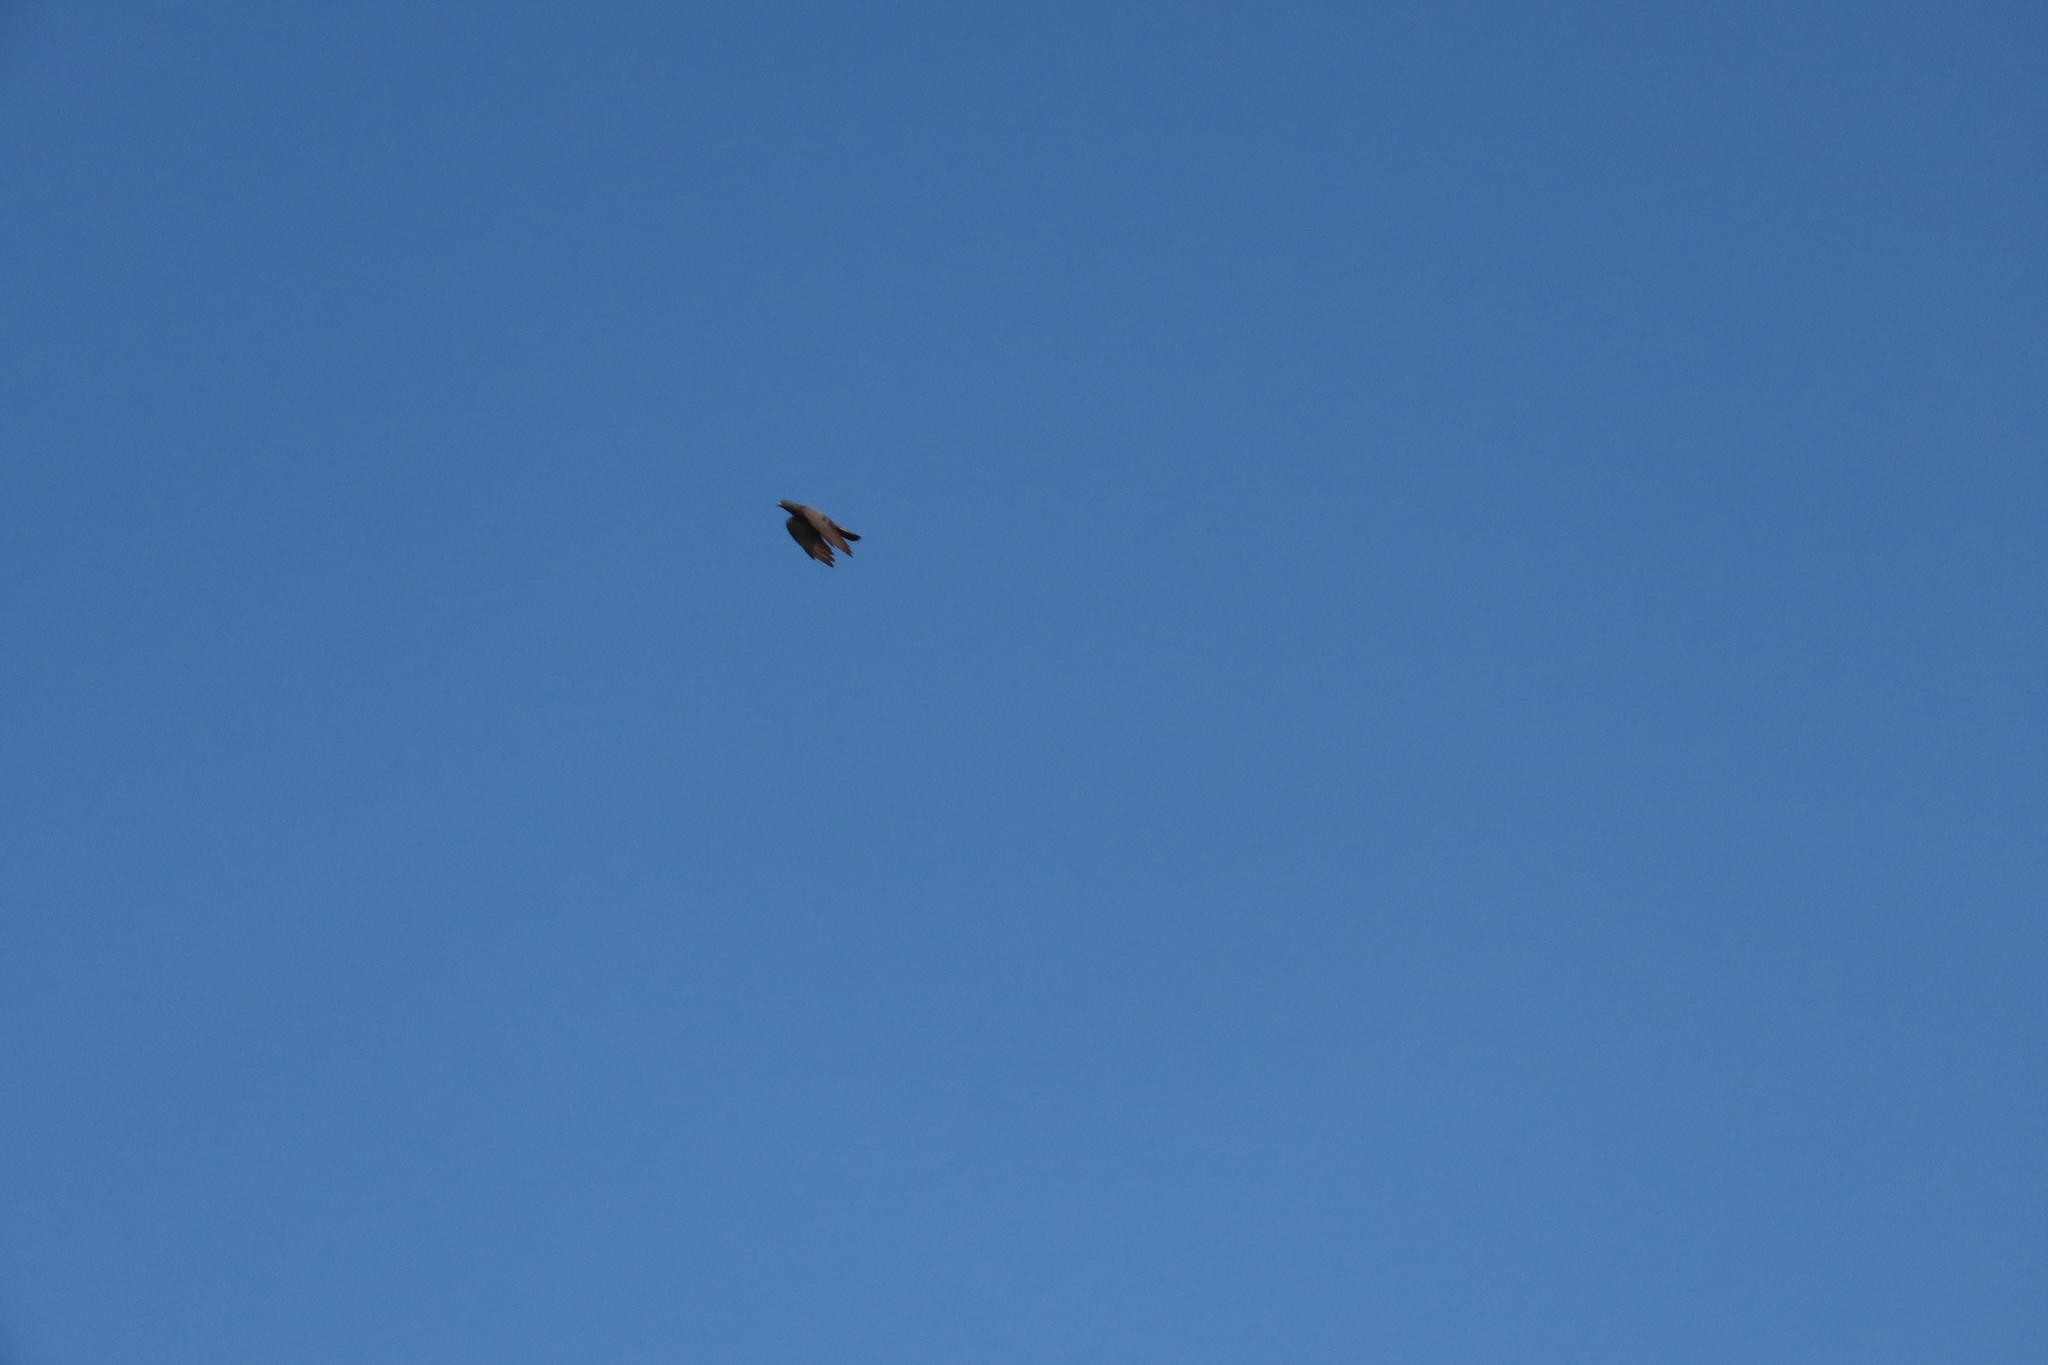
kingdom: Animalia
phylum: Chordata
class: Aves
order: Columbiformes
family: Columbidae
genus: Columba
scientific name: Columba livia
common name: Rock pigeon
